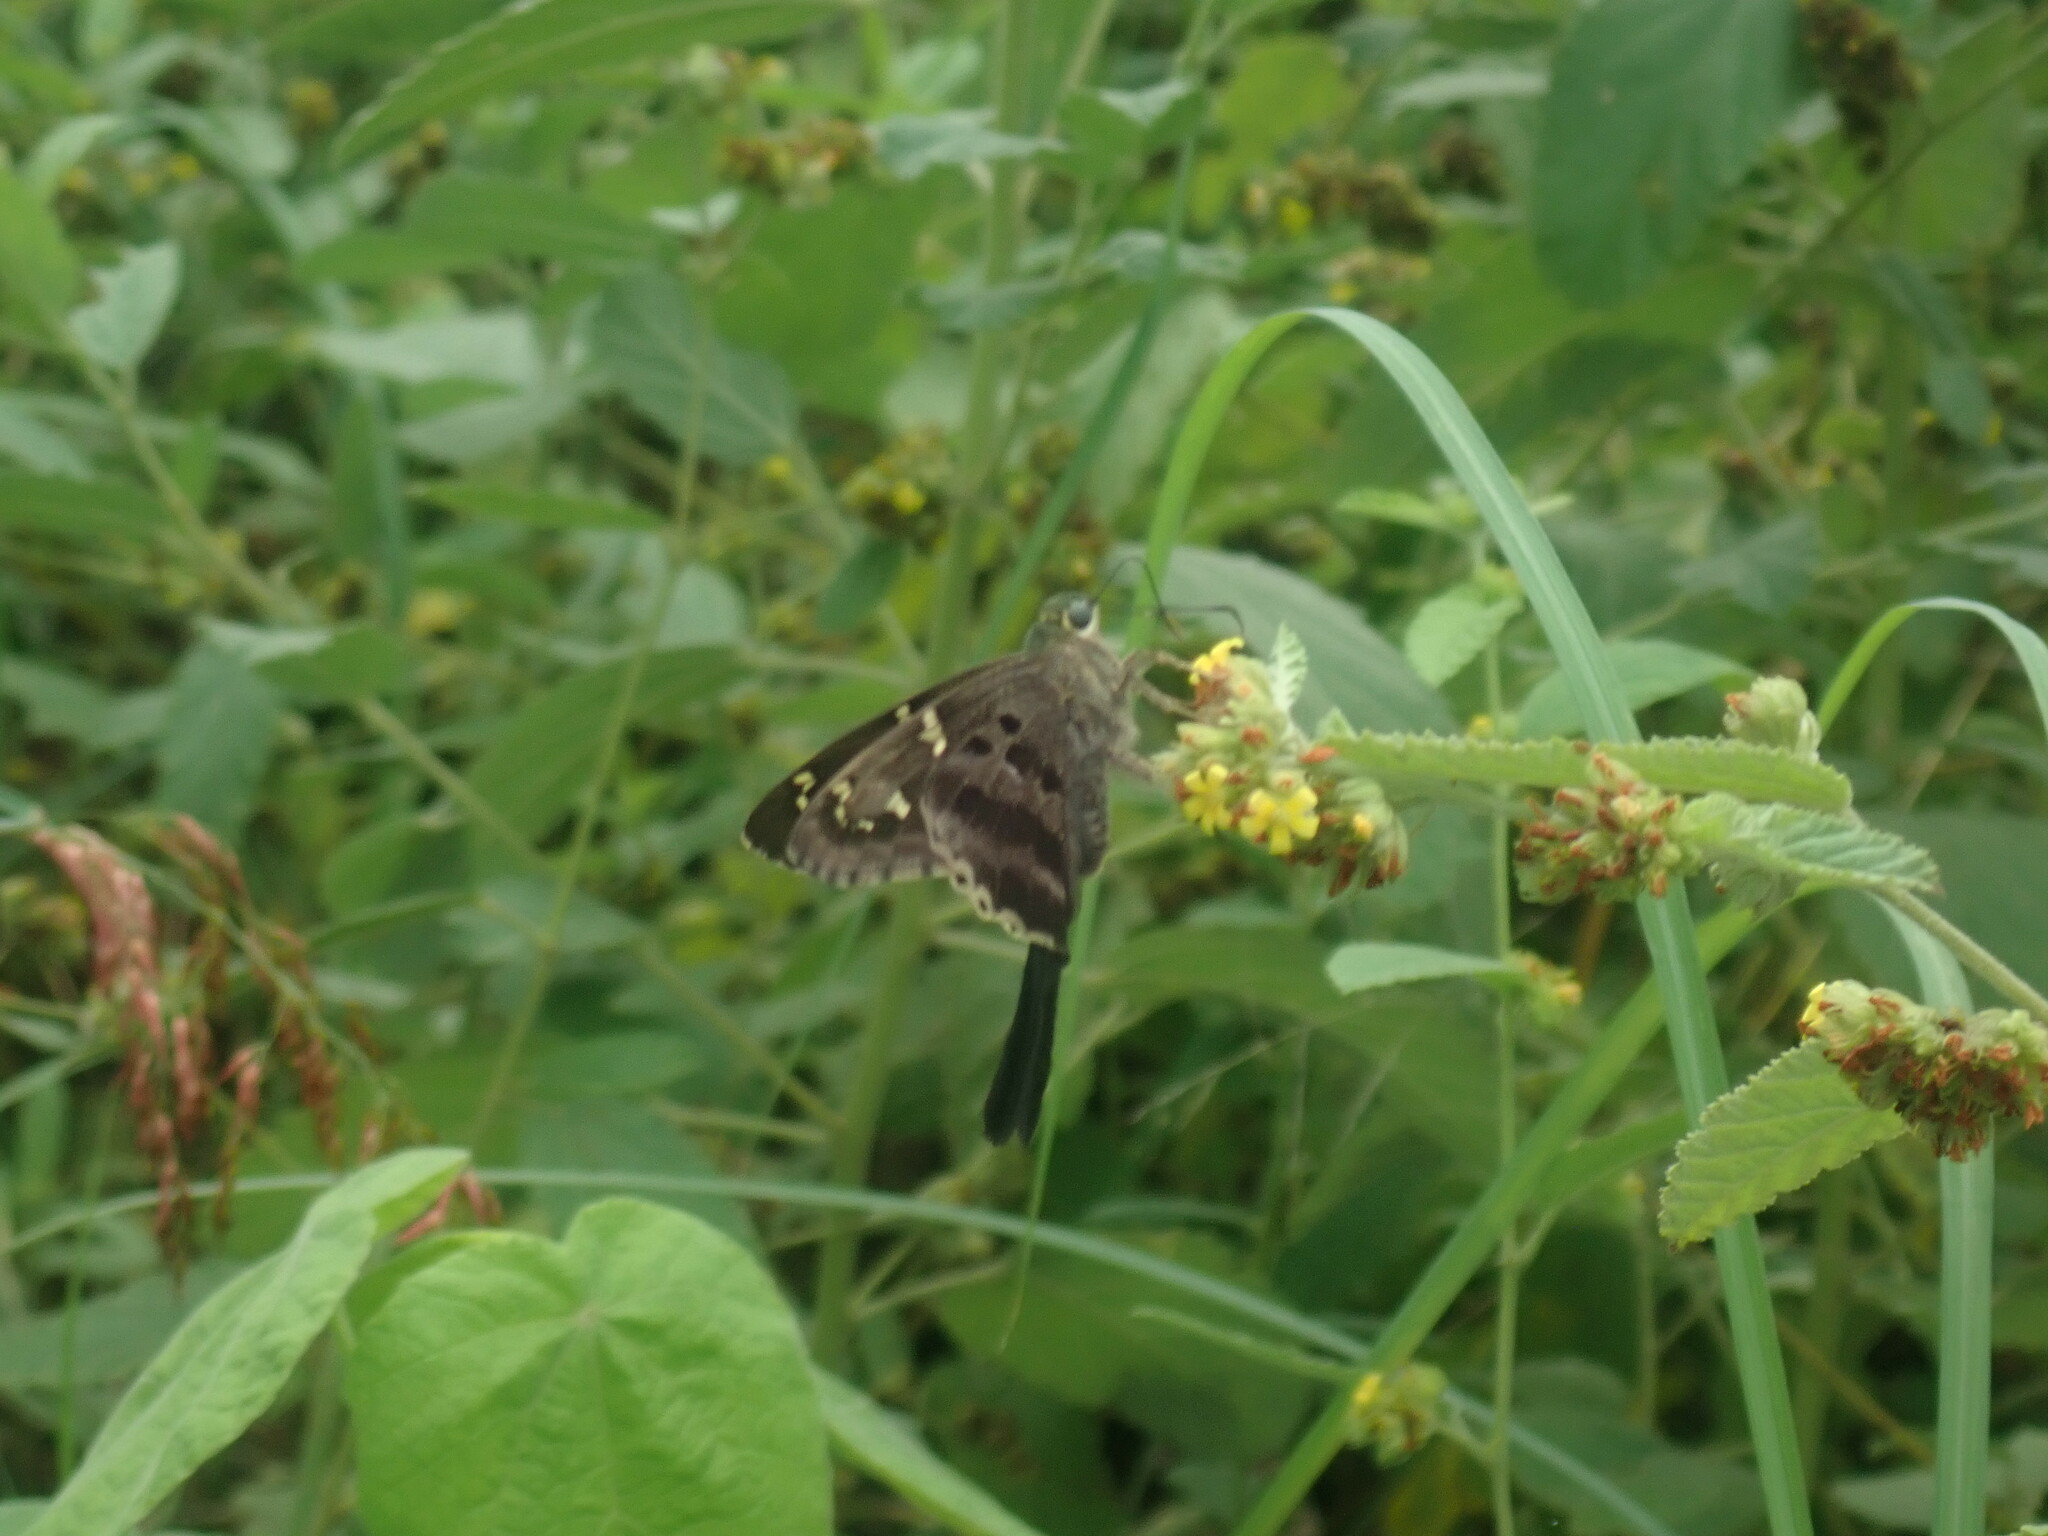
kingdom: Animalia
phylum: Arthropoda
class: Insecta
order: Lepidoptera
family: Hesperiidae
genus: Urbanus
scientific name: Urbanus proteus
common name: Long-tailed skipper
